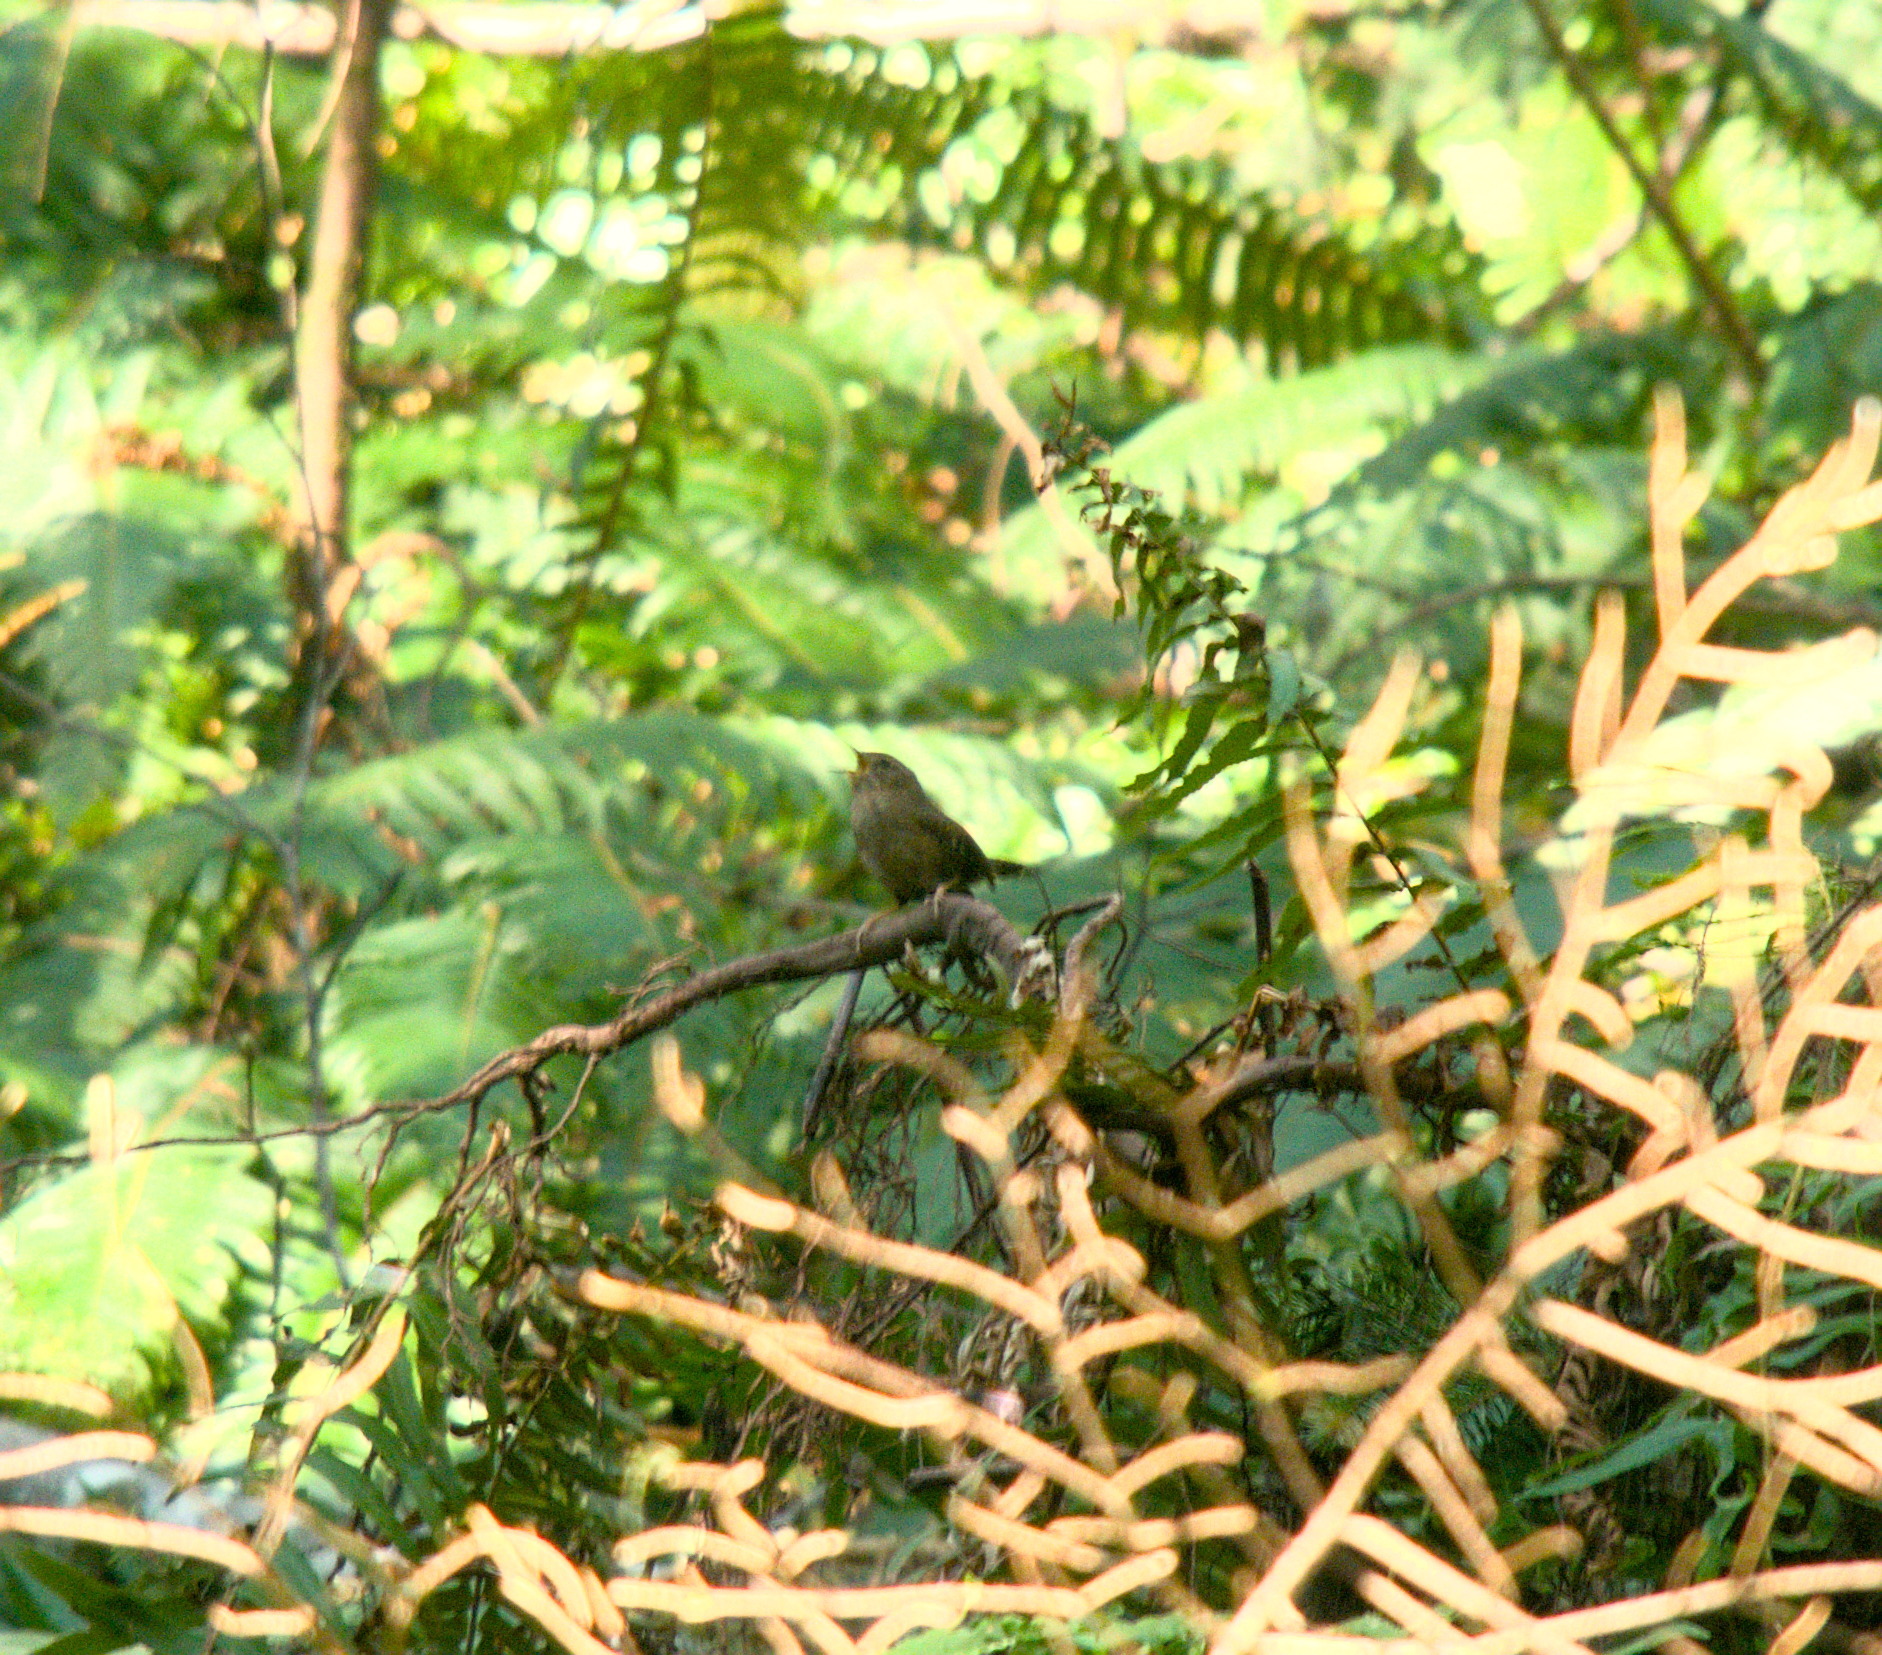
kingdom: Animalia
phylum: Chordata
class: Aves
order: Passeriformes
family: Troglodytidae
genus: Troglodytes
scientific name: Troglodytes pacificus
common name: Pacific wren
